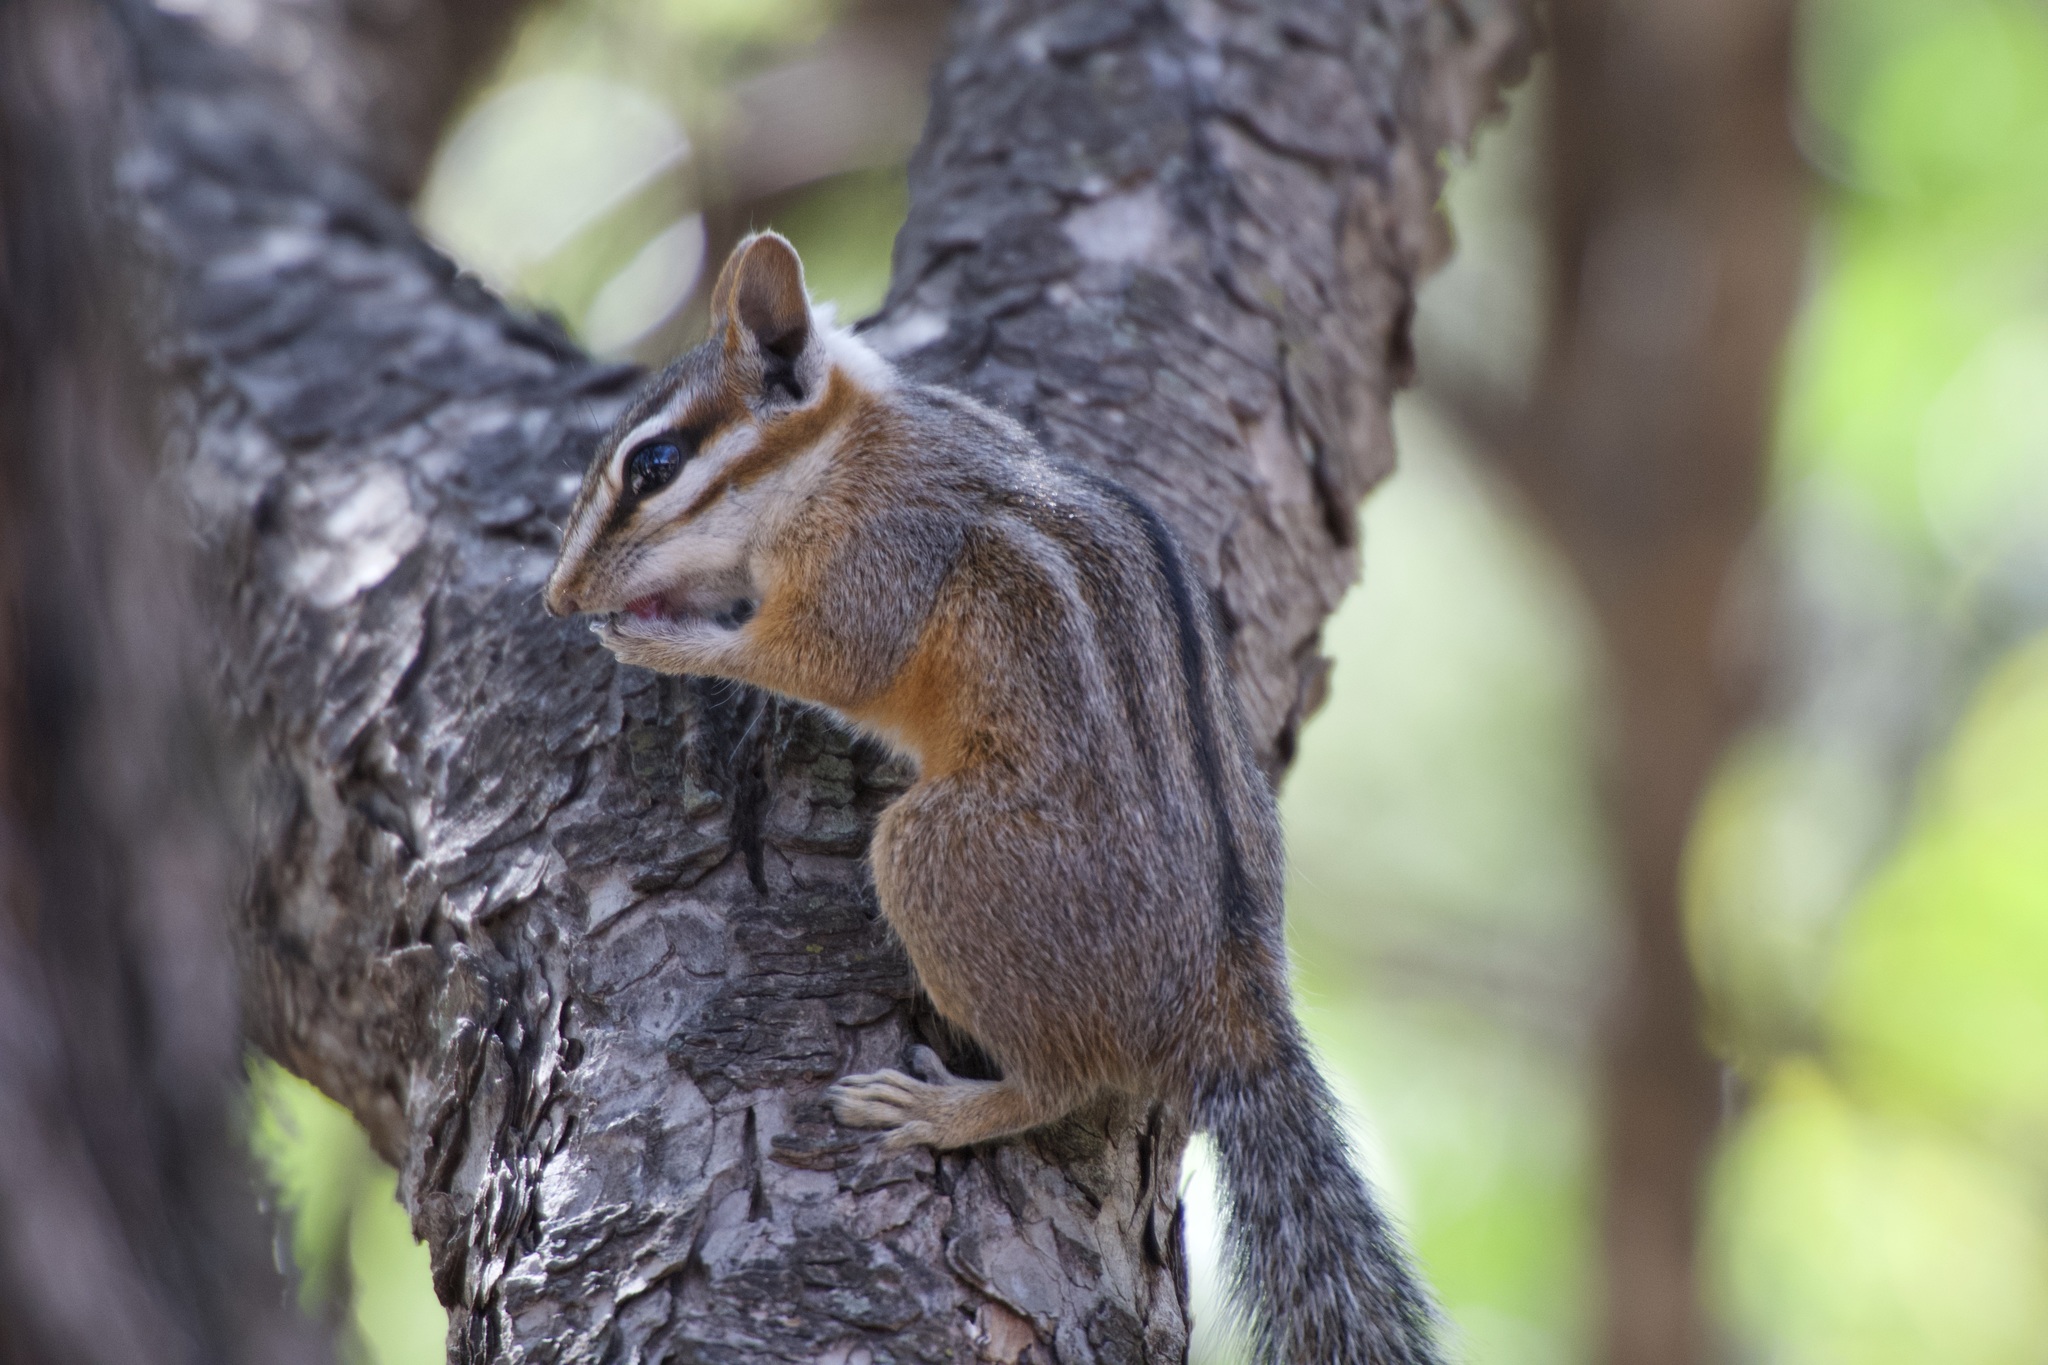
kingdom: Animalia
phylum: Chordata
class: Mammalia
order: Rodentia
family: Sciuridae
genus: Tamias
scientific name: Tamias dorsalis
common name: Cliff chipmunk
